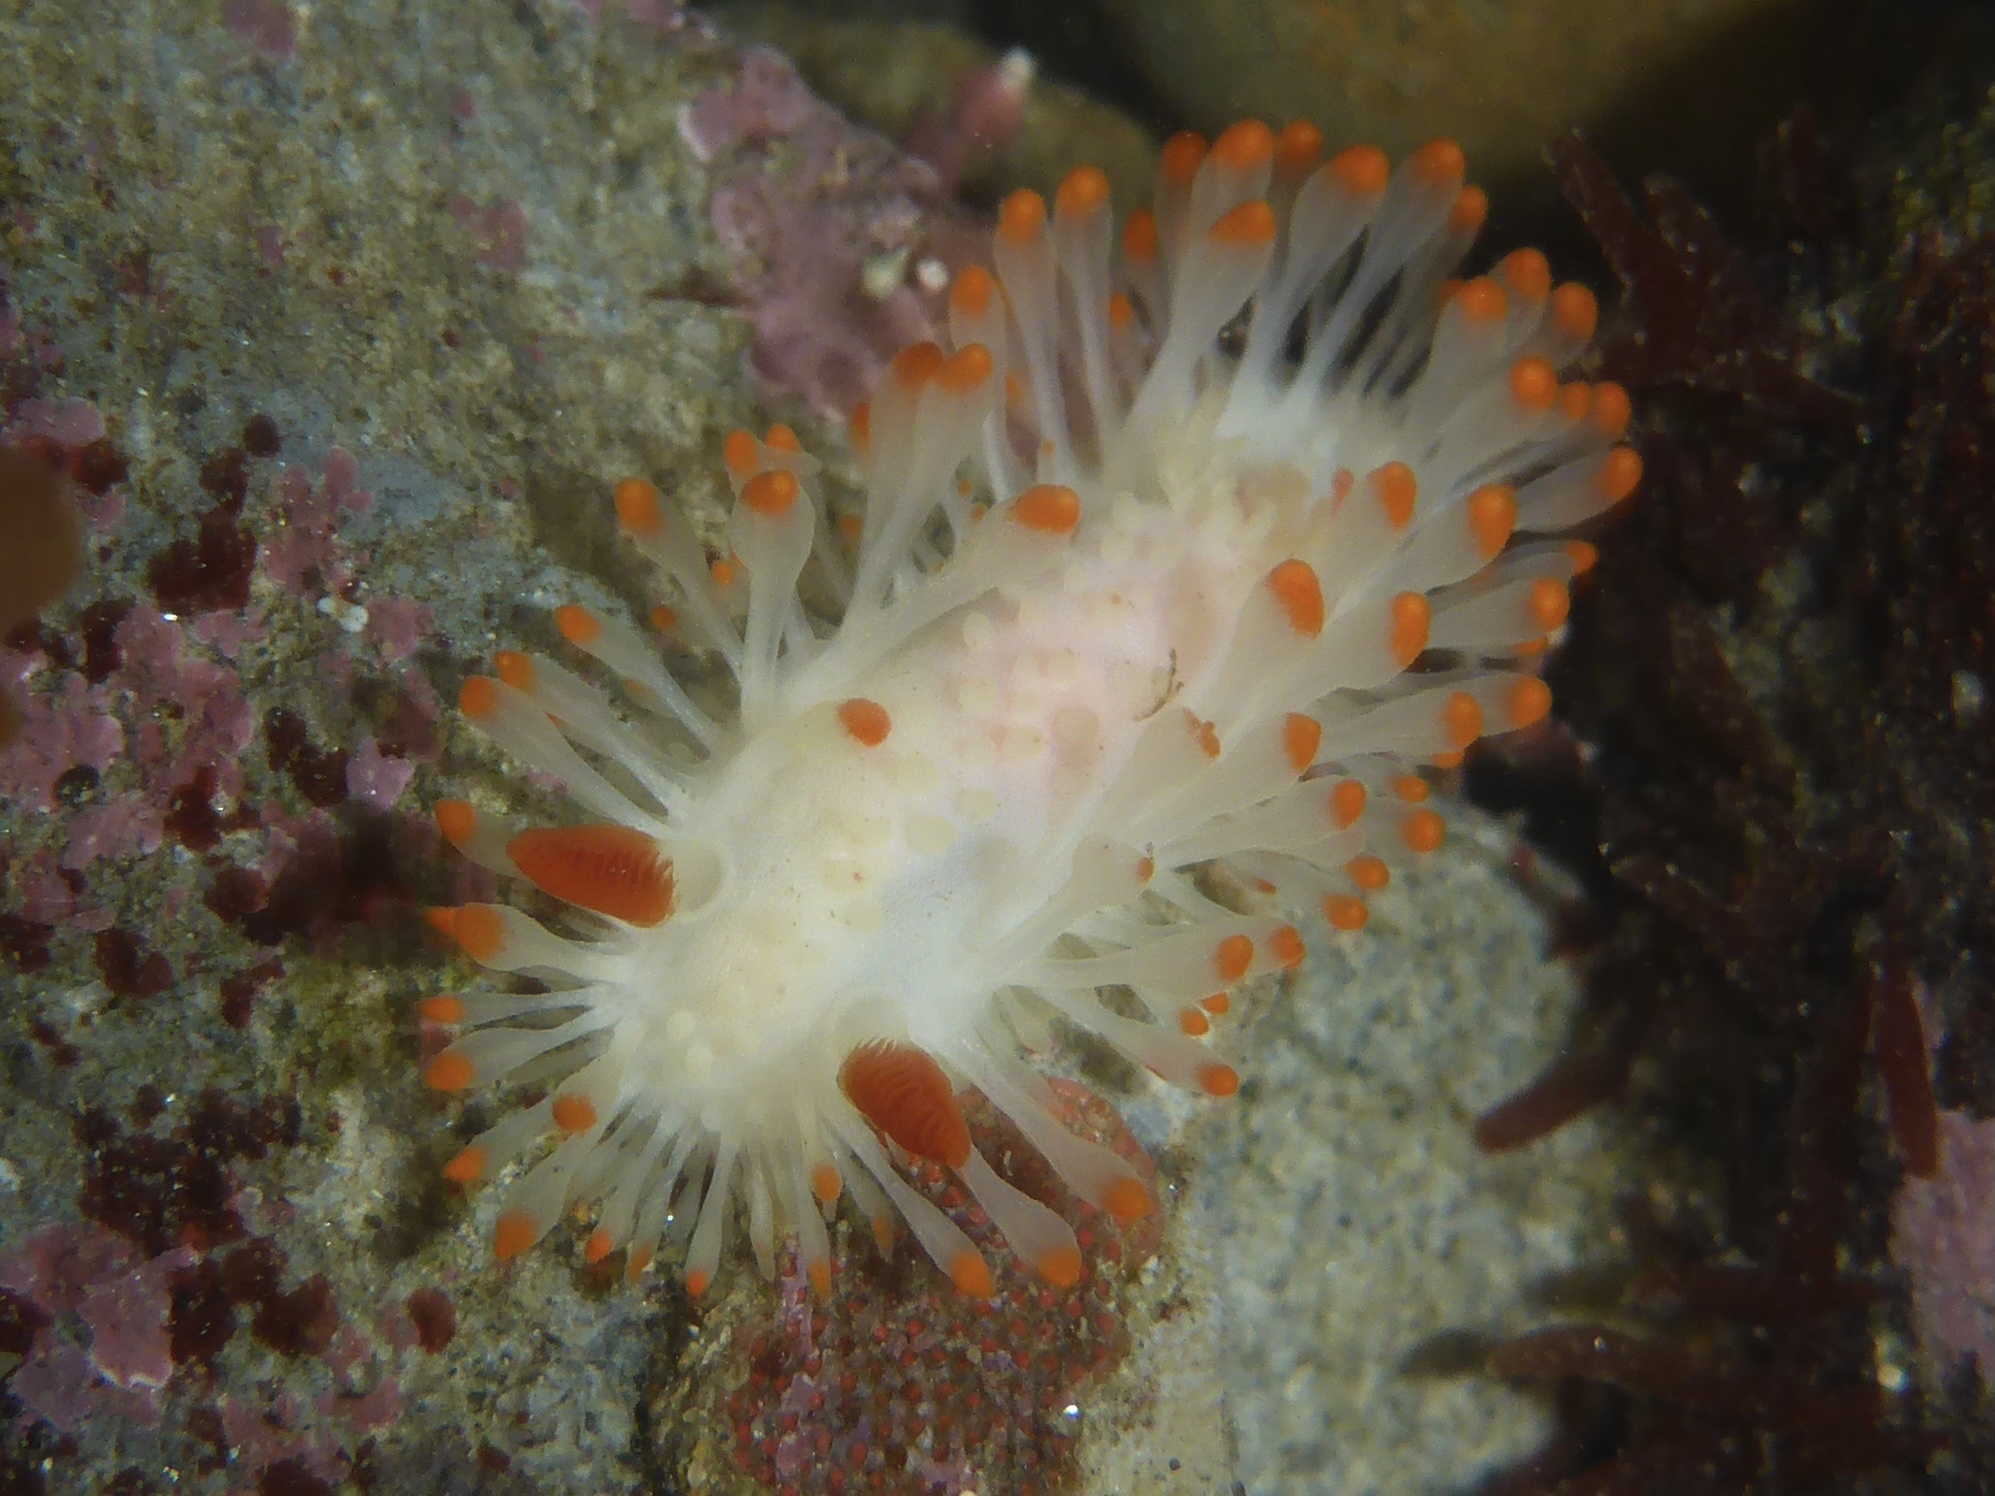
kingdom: Animalia
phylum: Mollusca
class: Gastropoda
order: Nudibranchia
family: Polyceridae
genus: Limacia
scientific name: Limacia cockerelli
